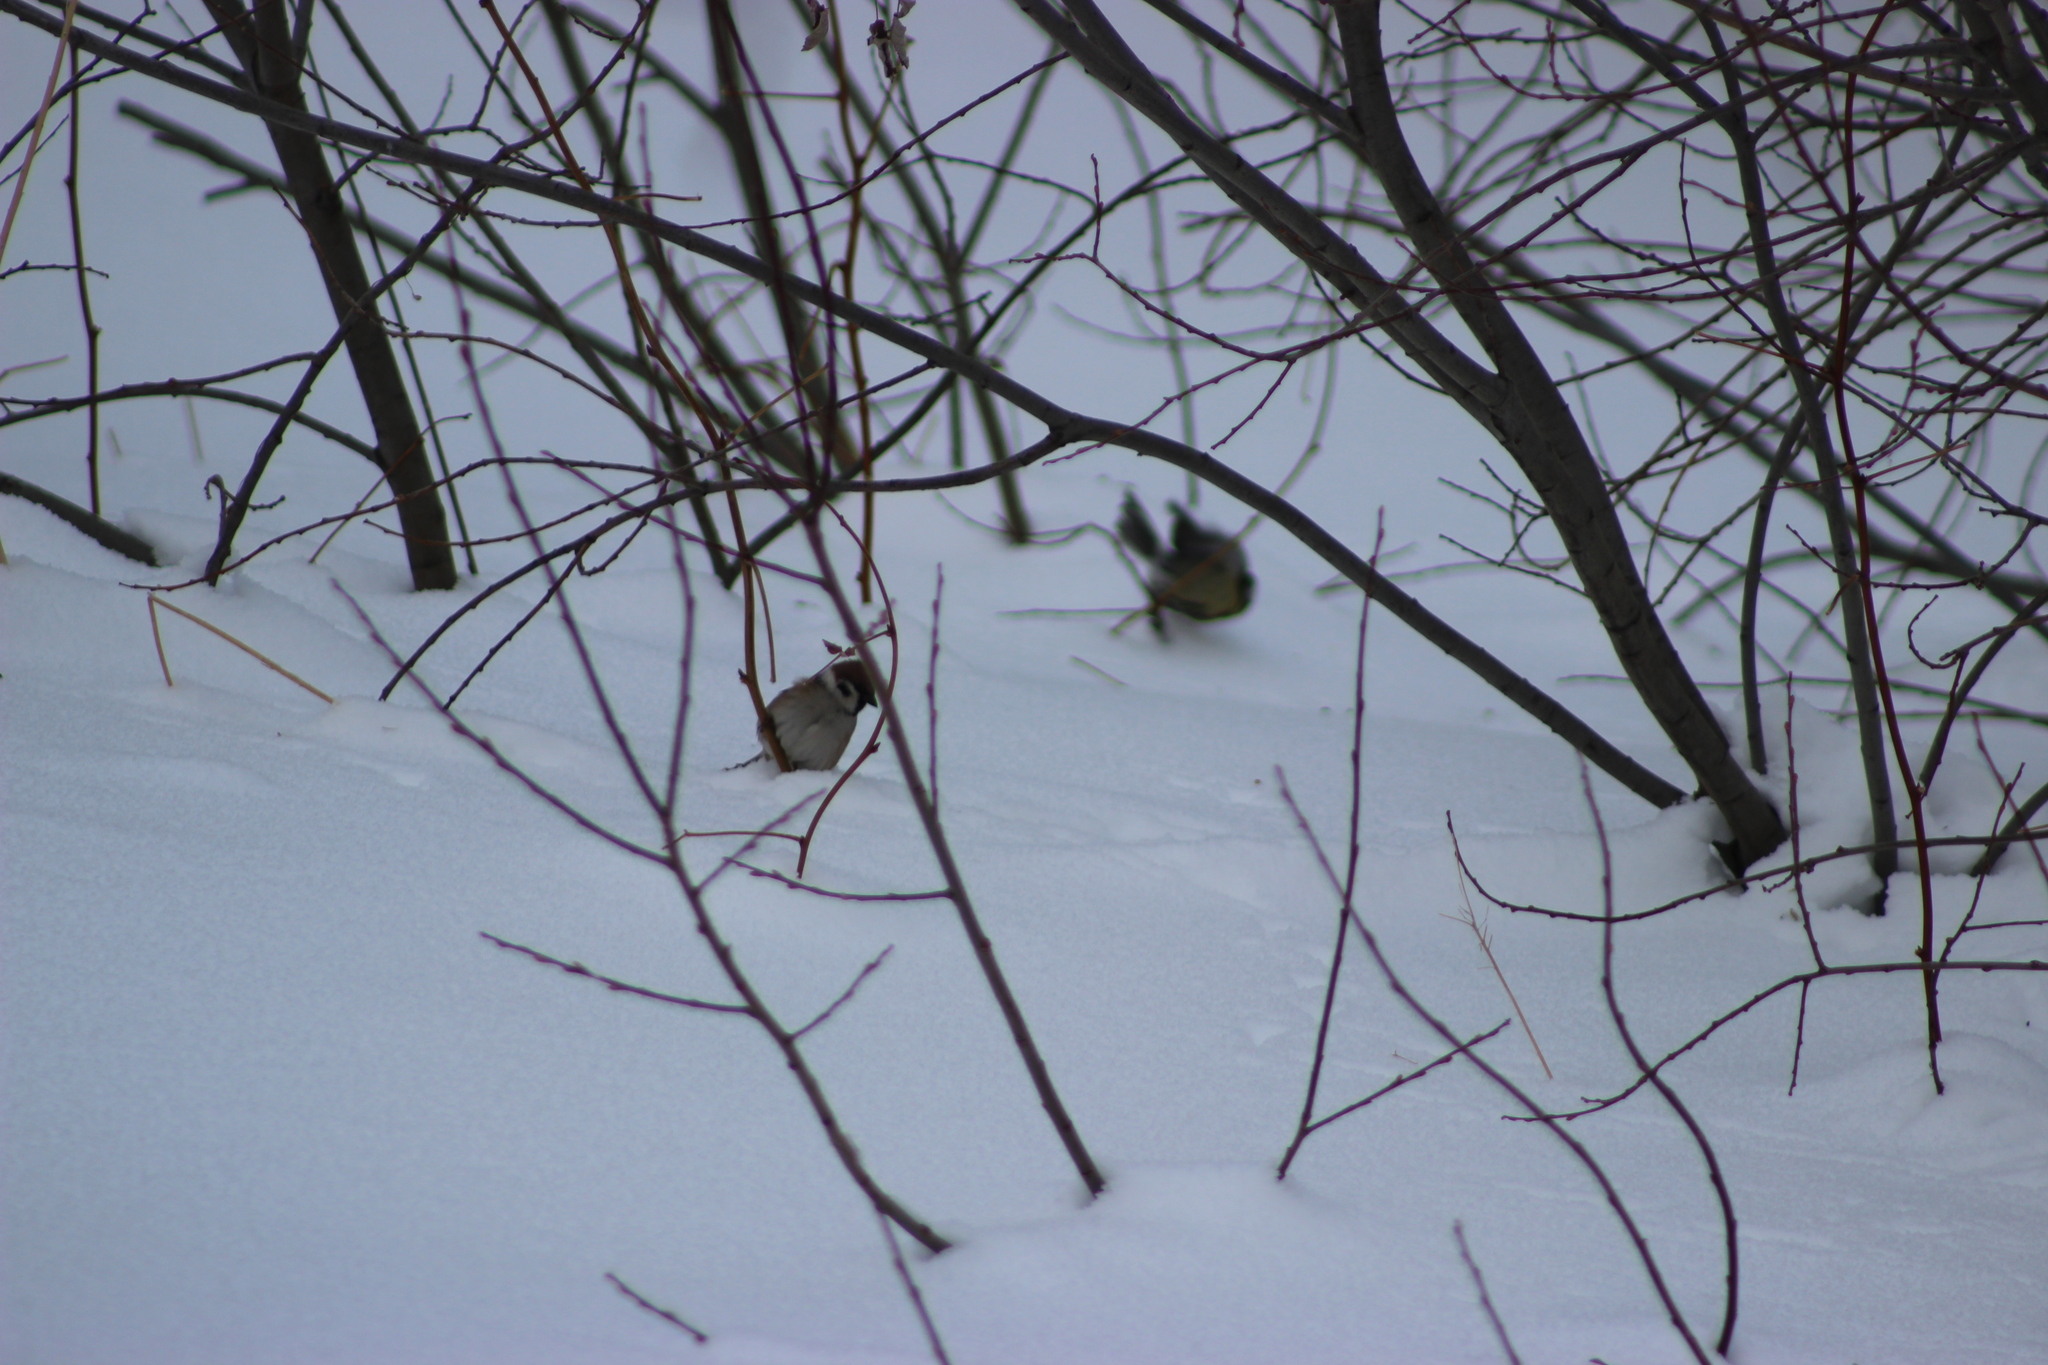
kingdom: Animalia
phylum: Chordata
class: Aves
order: Passeriformes
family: Passeridae
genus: Passer
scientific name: Passer montanus
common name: Eurasian tree sparrow
